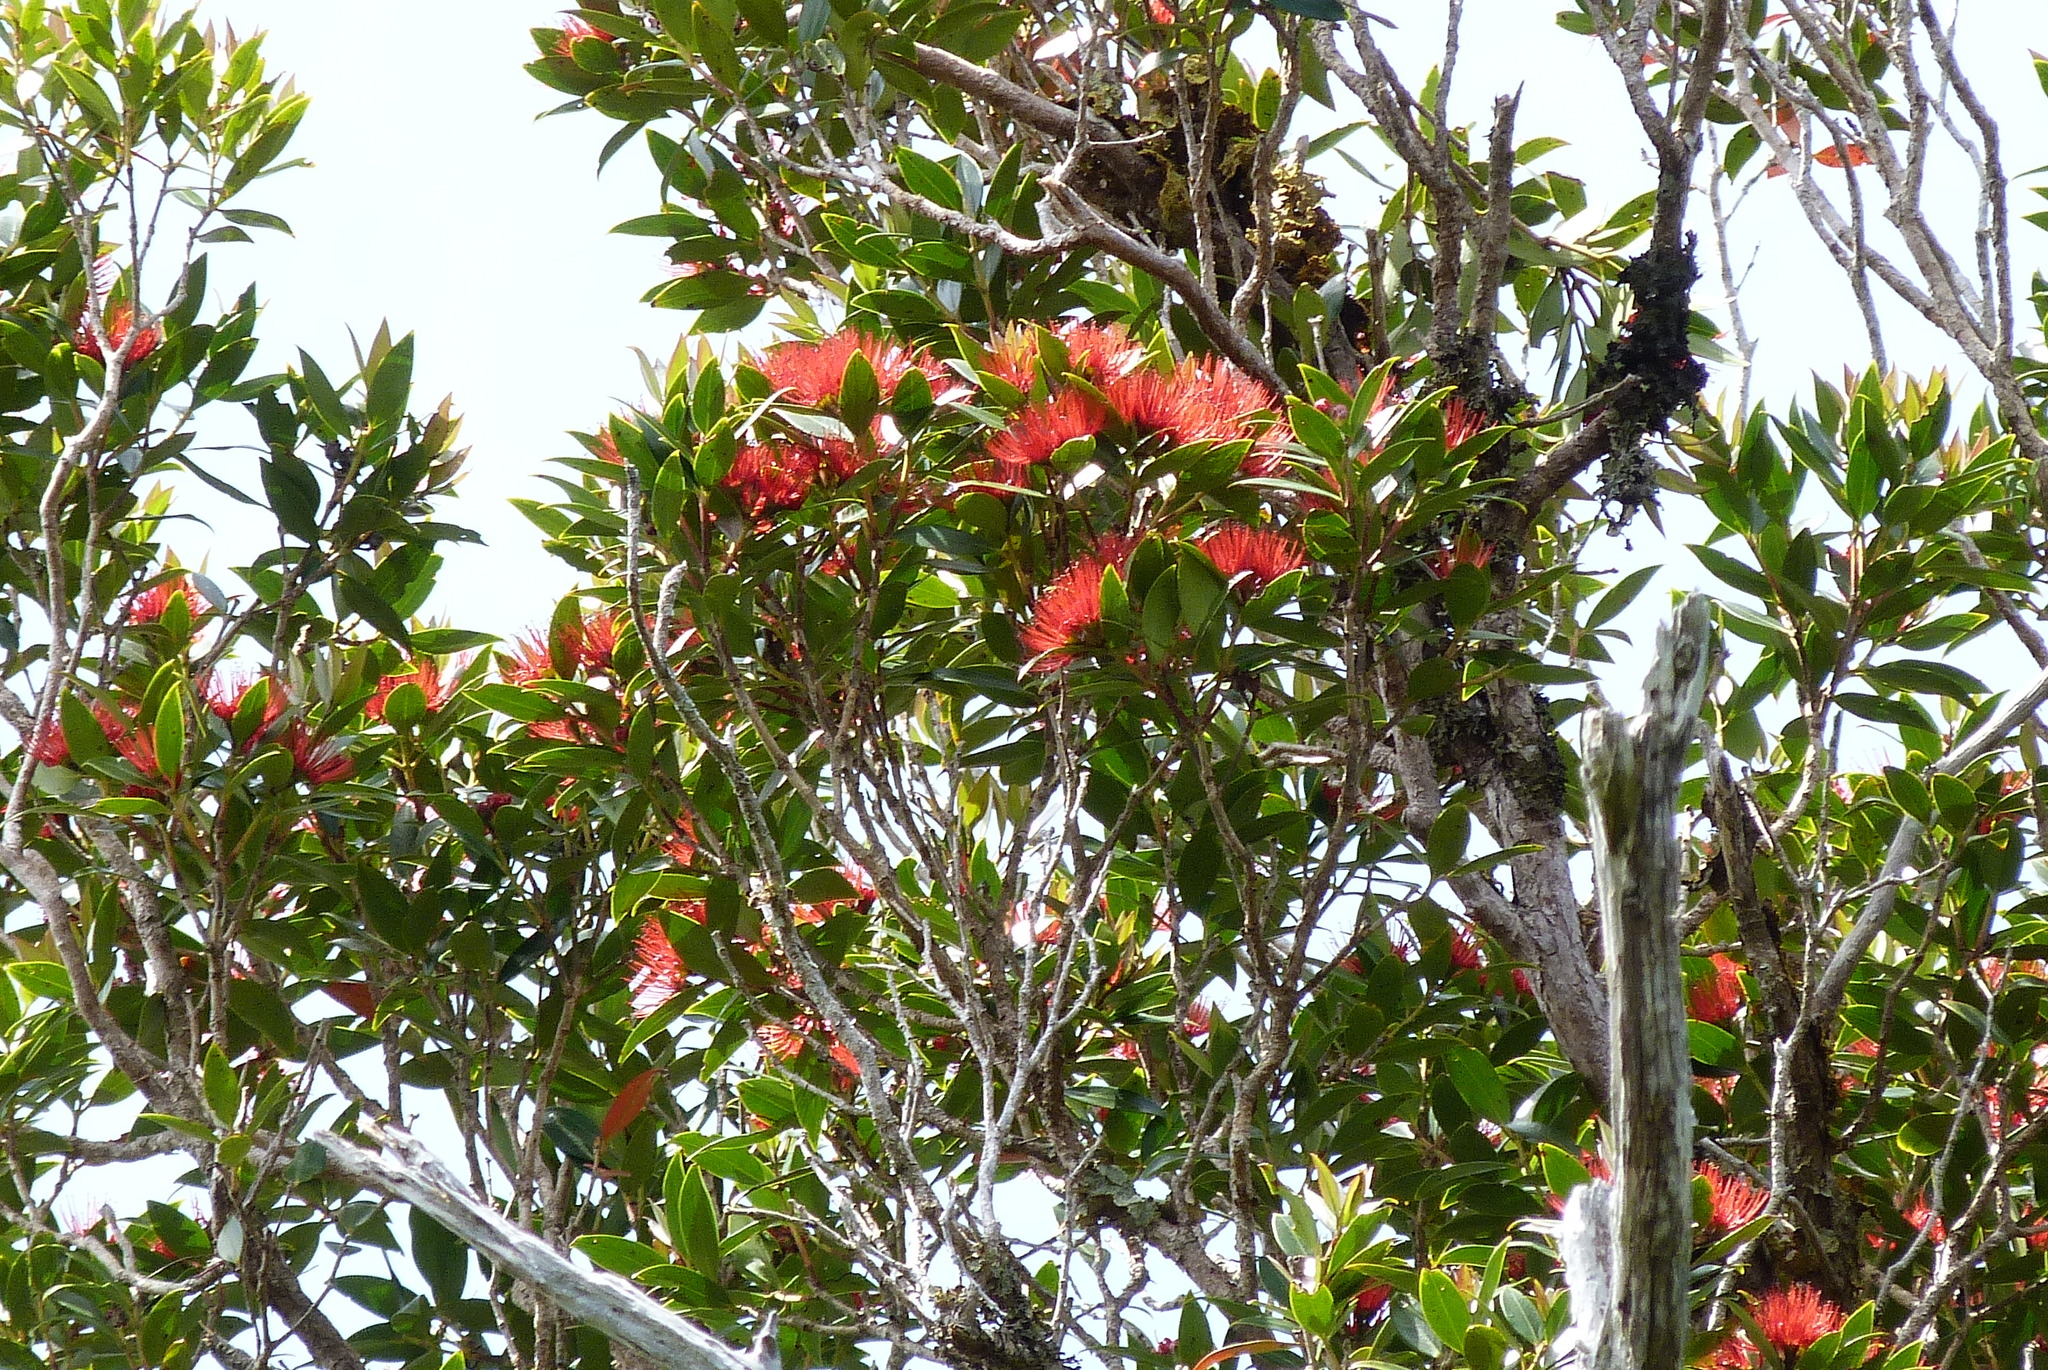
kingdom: Plantae
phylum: Tracheophyta
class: Magnoliopsida
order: Myrtales
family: Myrtaceae
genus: Metrosideros
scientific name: Metrosideros umbellata
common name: Southern rata
